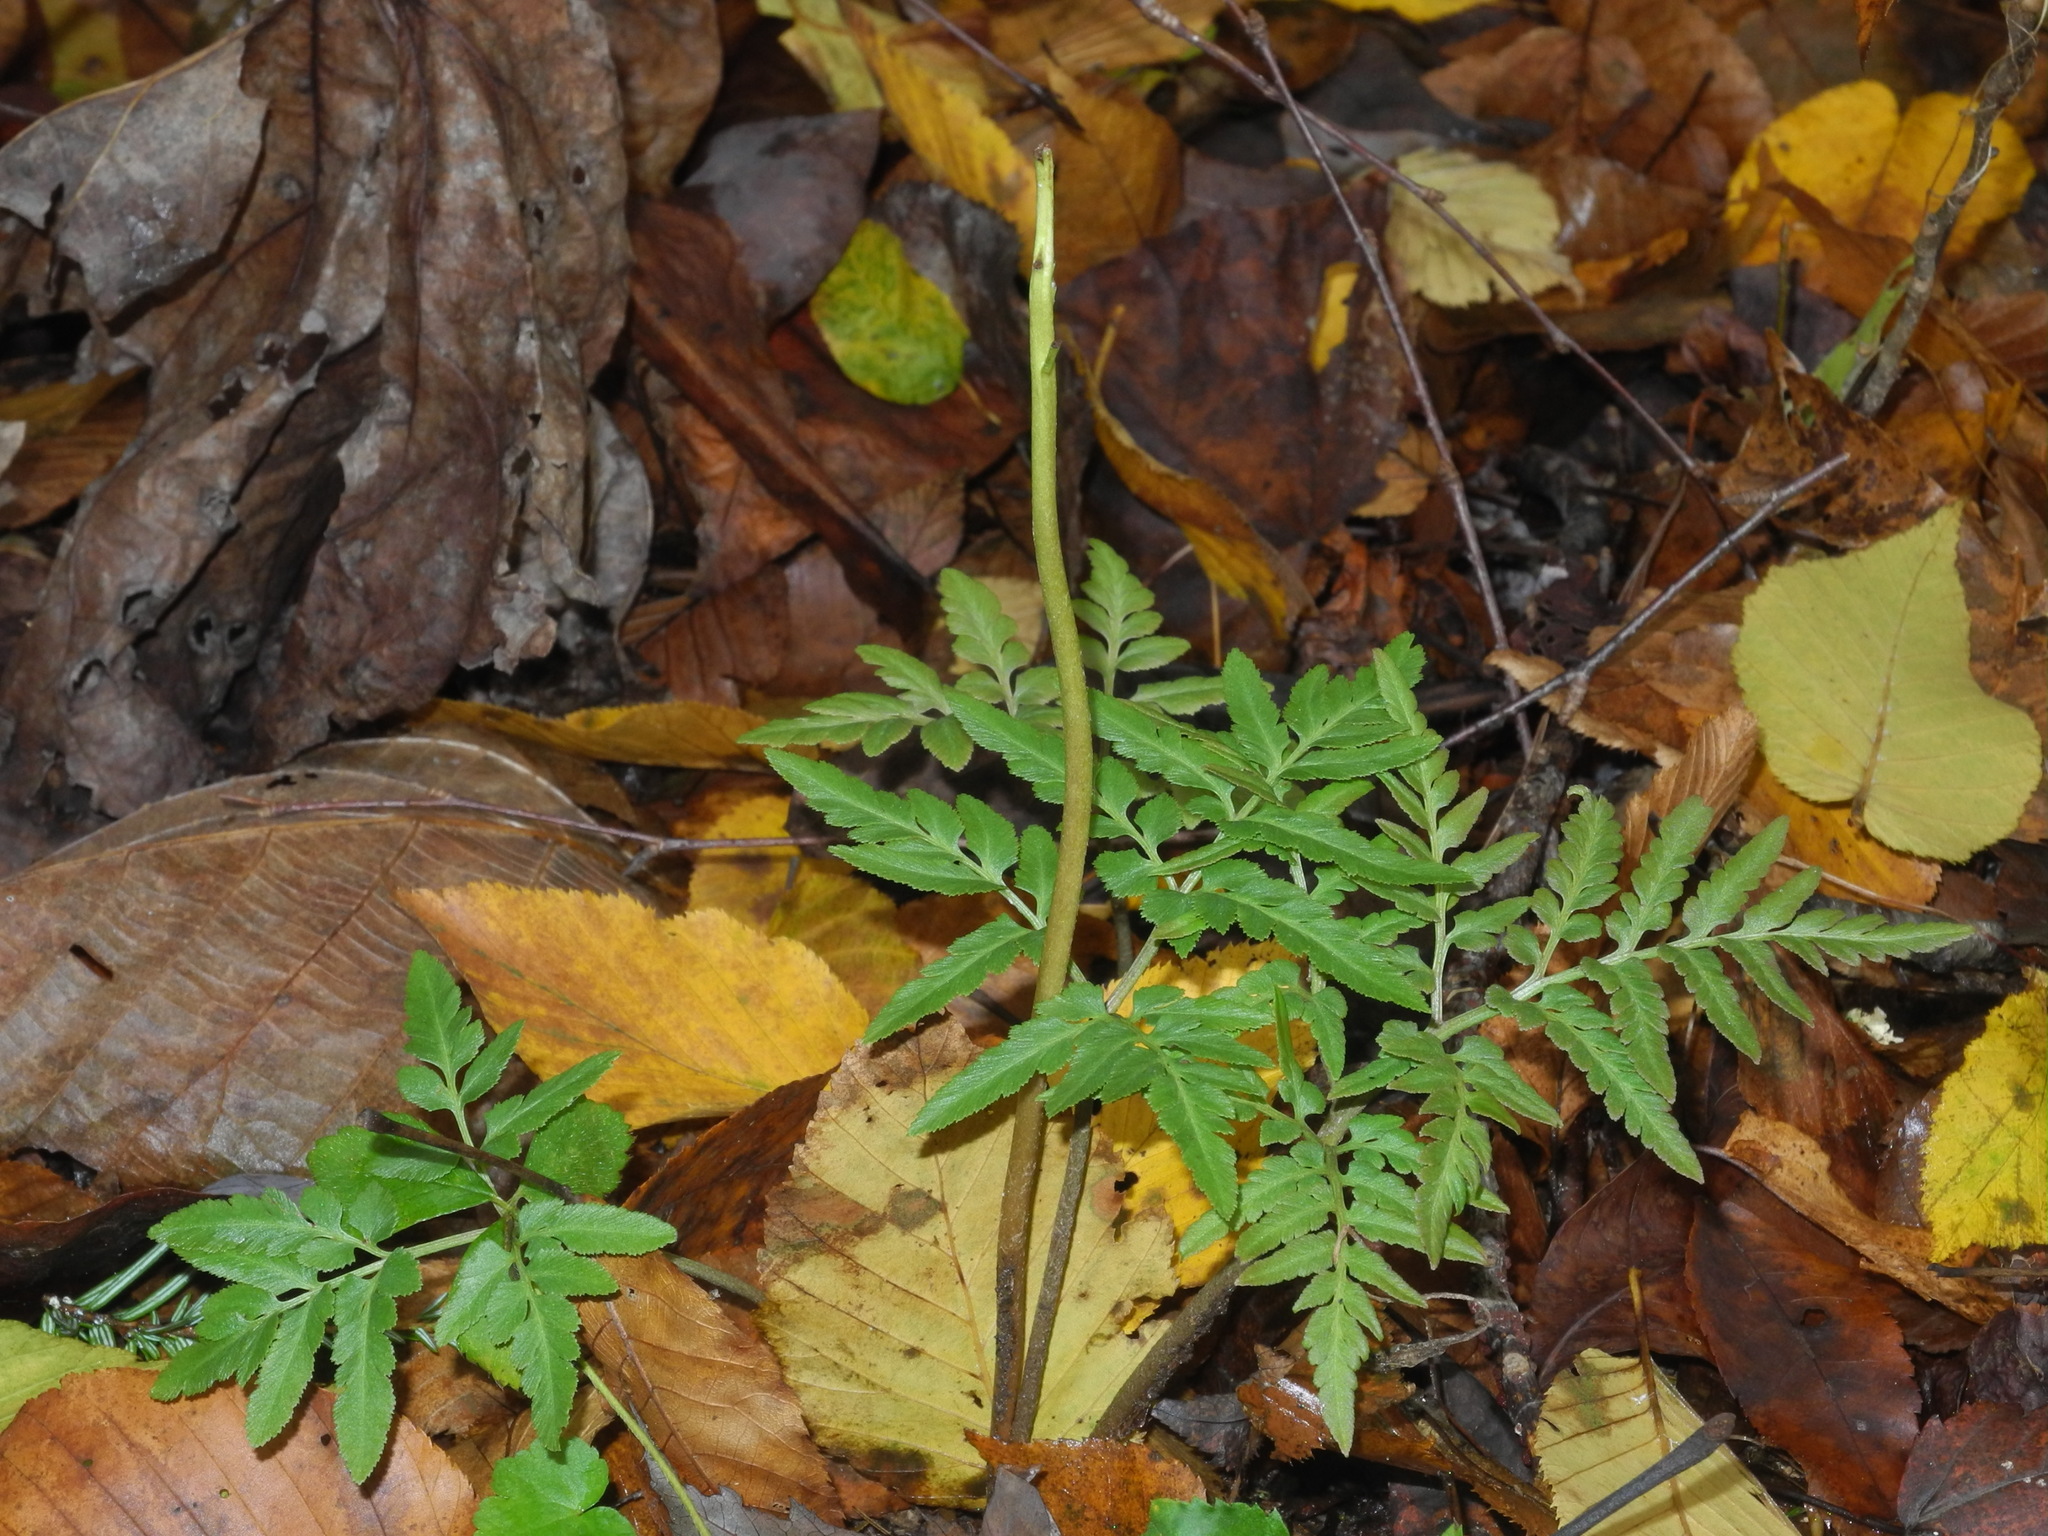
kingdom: Plantae
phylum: Tracheophyta
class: Polypodiopsida
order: Ophioglossales
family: Ophioglossaceae
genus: Sceptridium
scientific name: Sceptridium dissectum
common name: Cut-leaved grapefern
